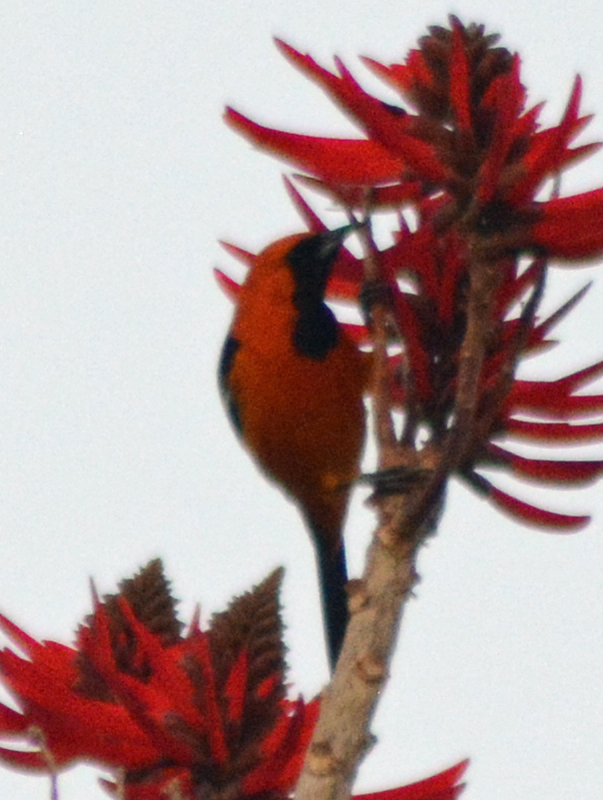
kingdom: Animalia
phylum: Chordata
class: Aves
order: Passeriformes
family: Icteridae
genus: Icterus
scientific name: Icterus cucullatus
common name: Hooded oriole
